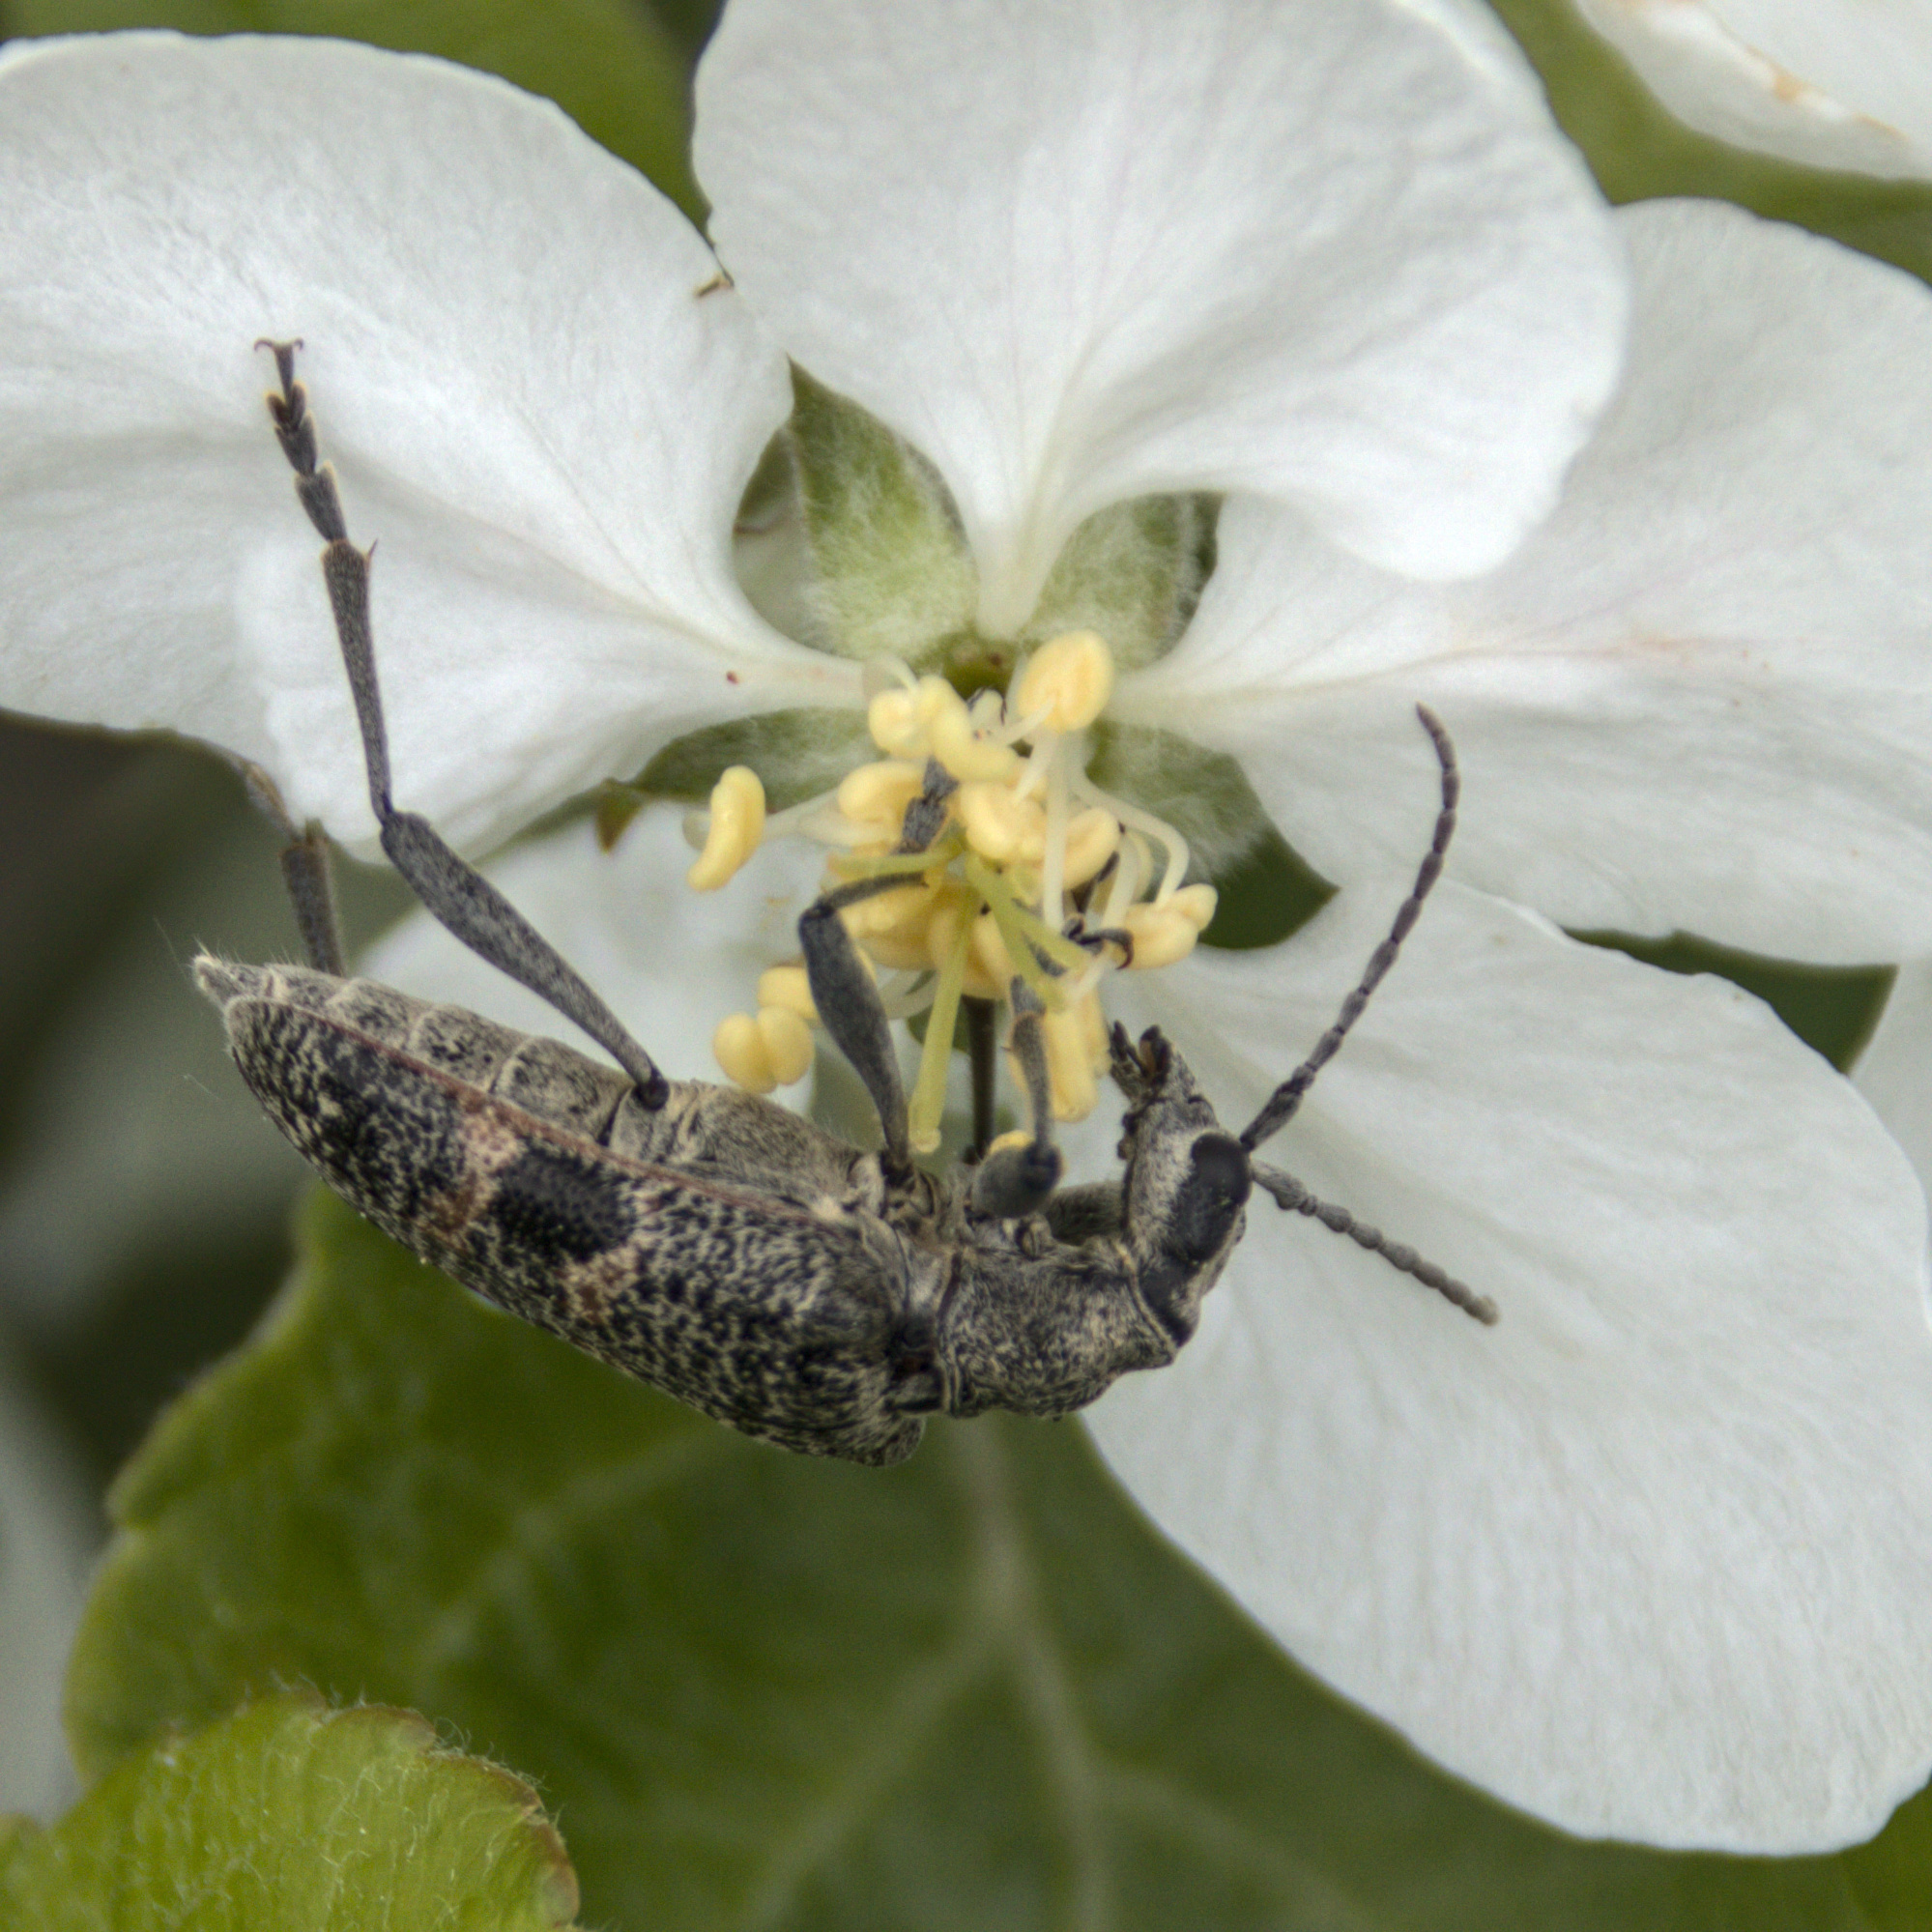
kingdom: Animalia
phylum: Arthropoda
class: Insecta
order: Coleoptera
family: Cerambycidae
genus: Rhagium
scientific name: Rhagium mordax
